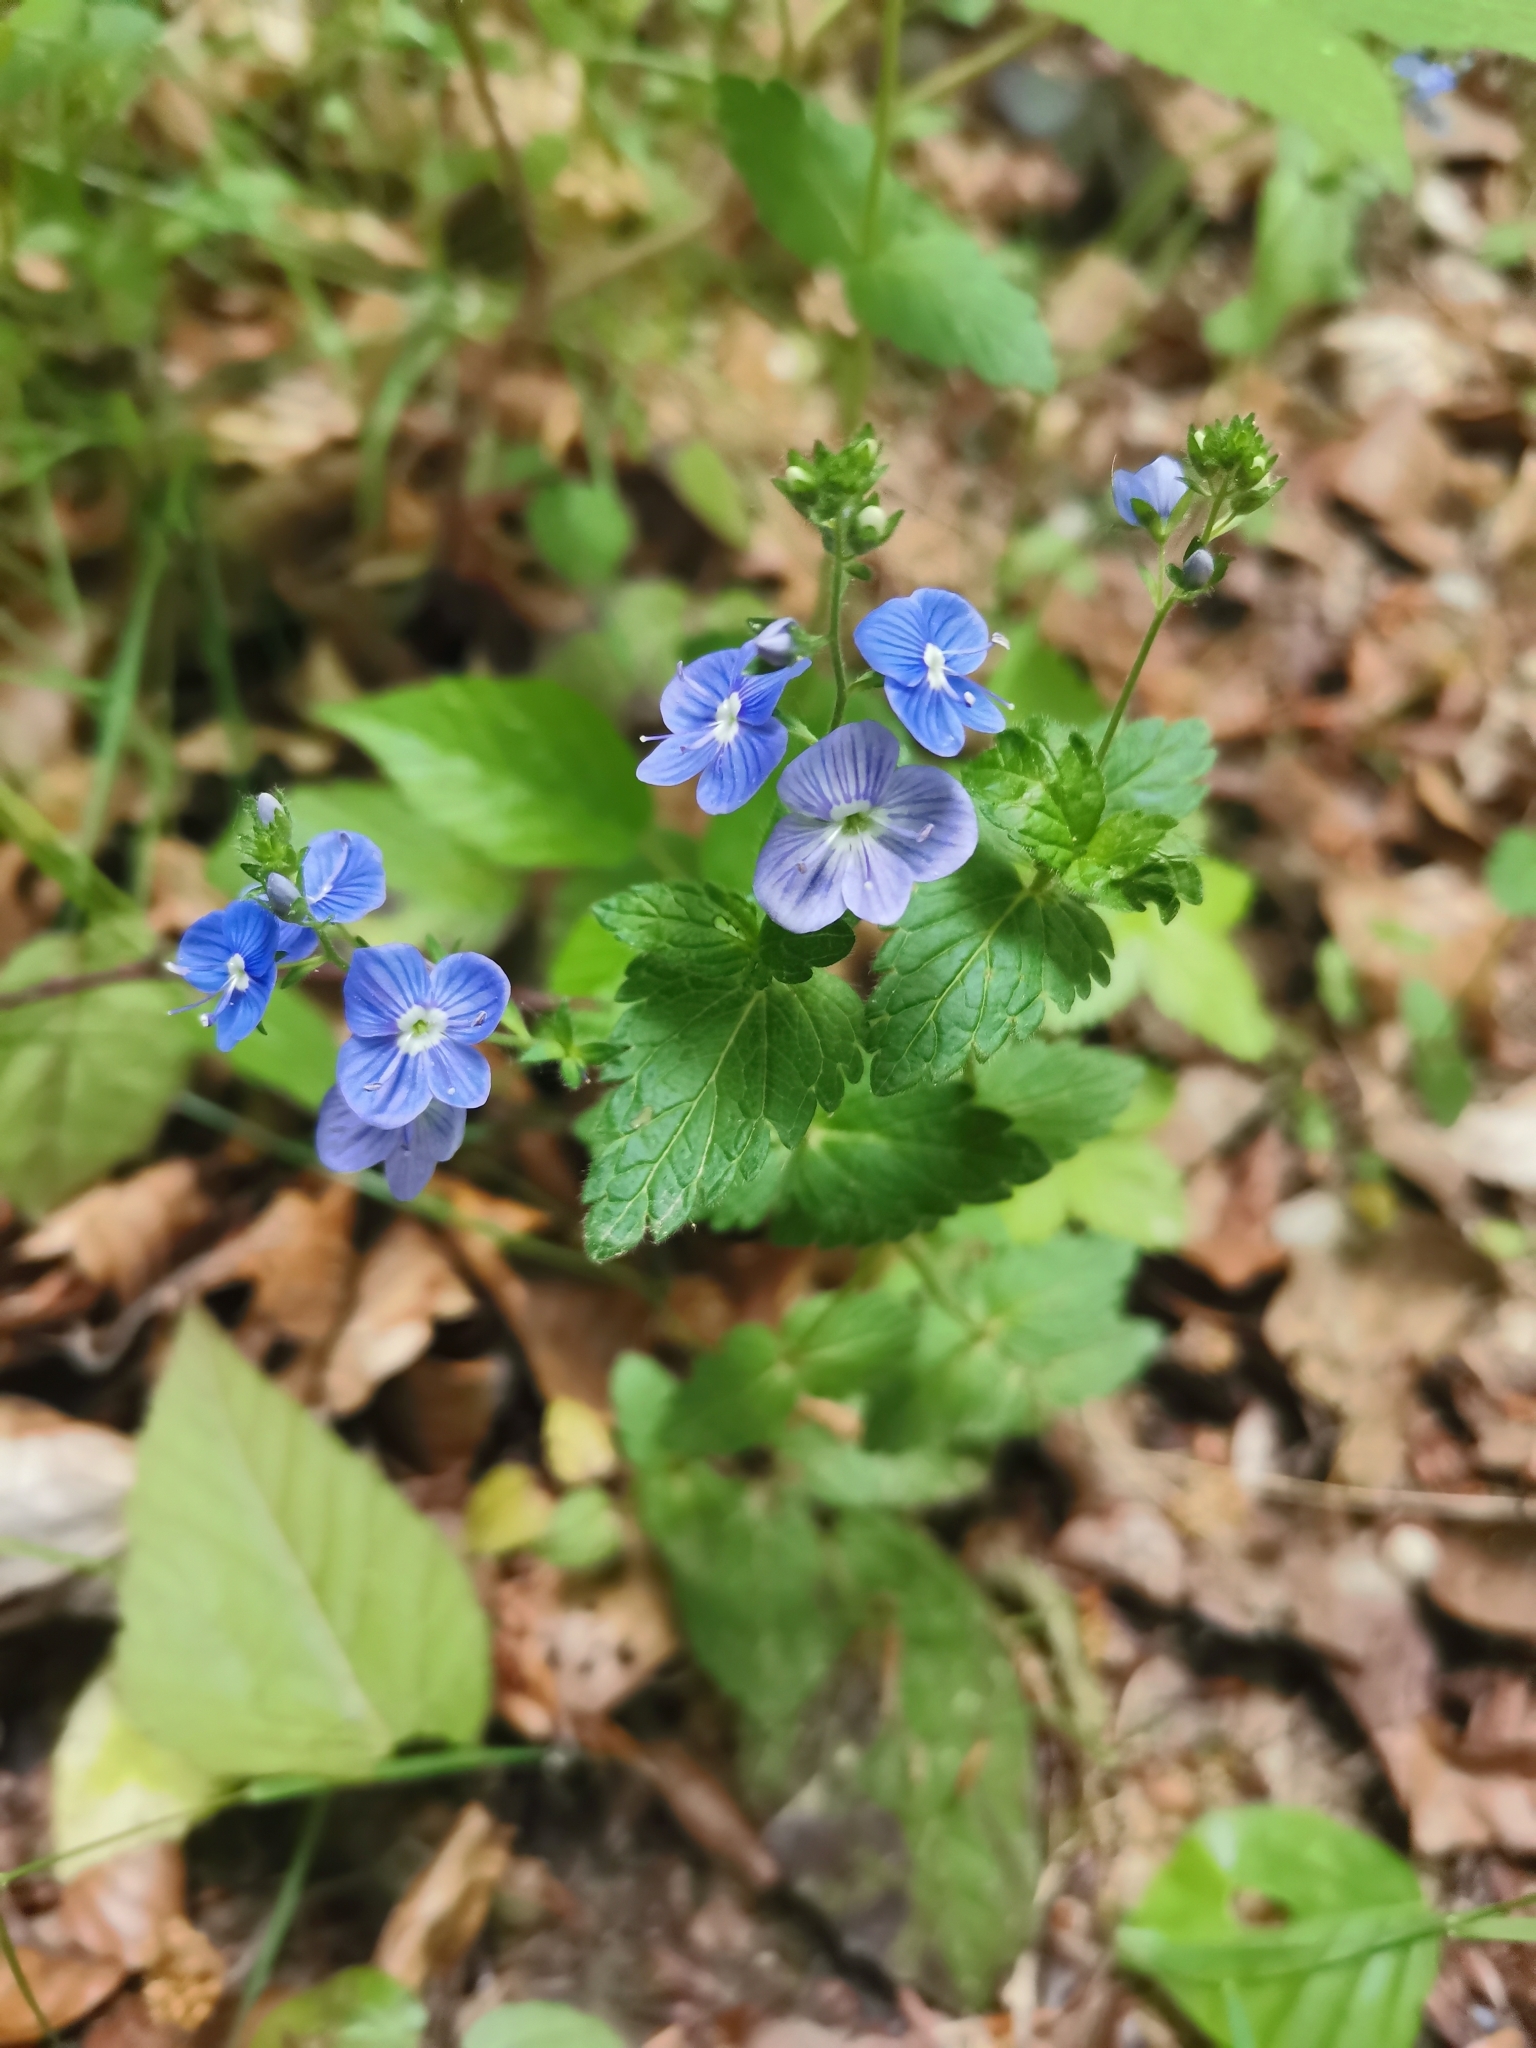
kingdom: Plantae
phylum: Tracheophyta
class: Magnoliopsida
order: Lamiales
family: Plantaginaceae
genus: Veronica
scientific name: Veronica chamaedrys
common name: Germander speedwell
